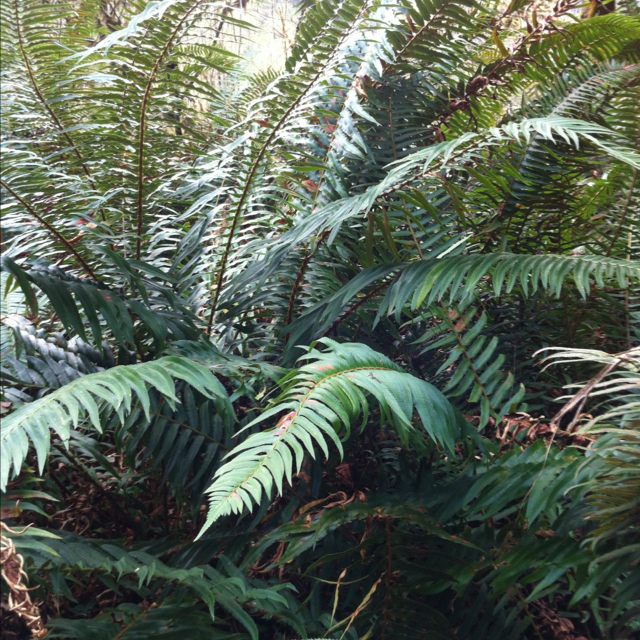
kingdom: Plantae
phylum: Tracheophyta
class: Polypodiopsida
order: Polypodiales
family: Dryopteridaceae
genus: Polystichum
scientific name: Polystichum munitum
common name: Western sword-fern
